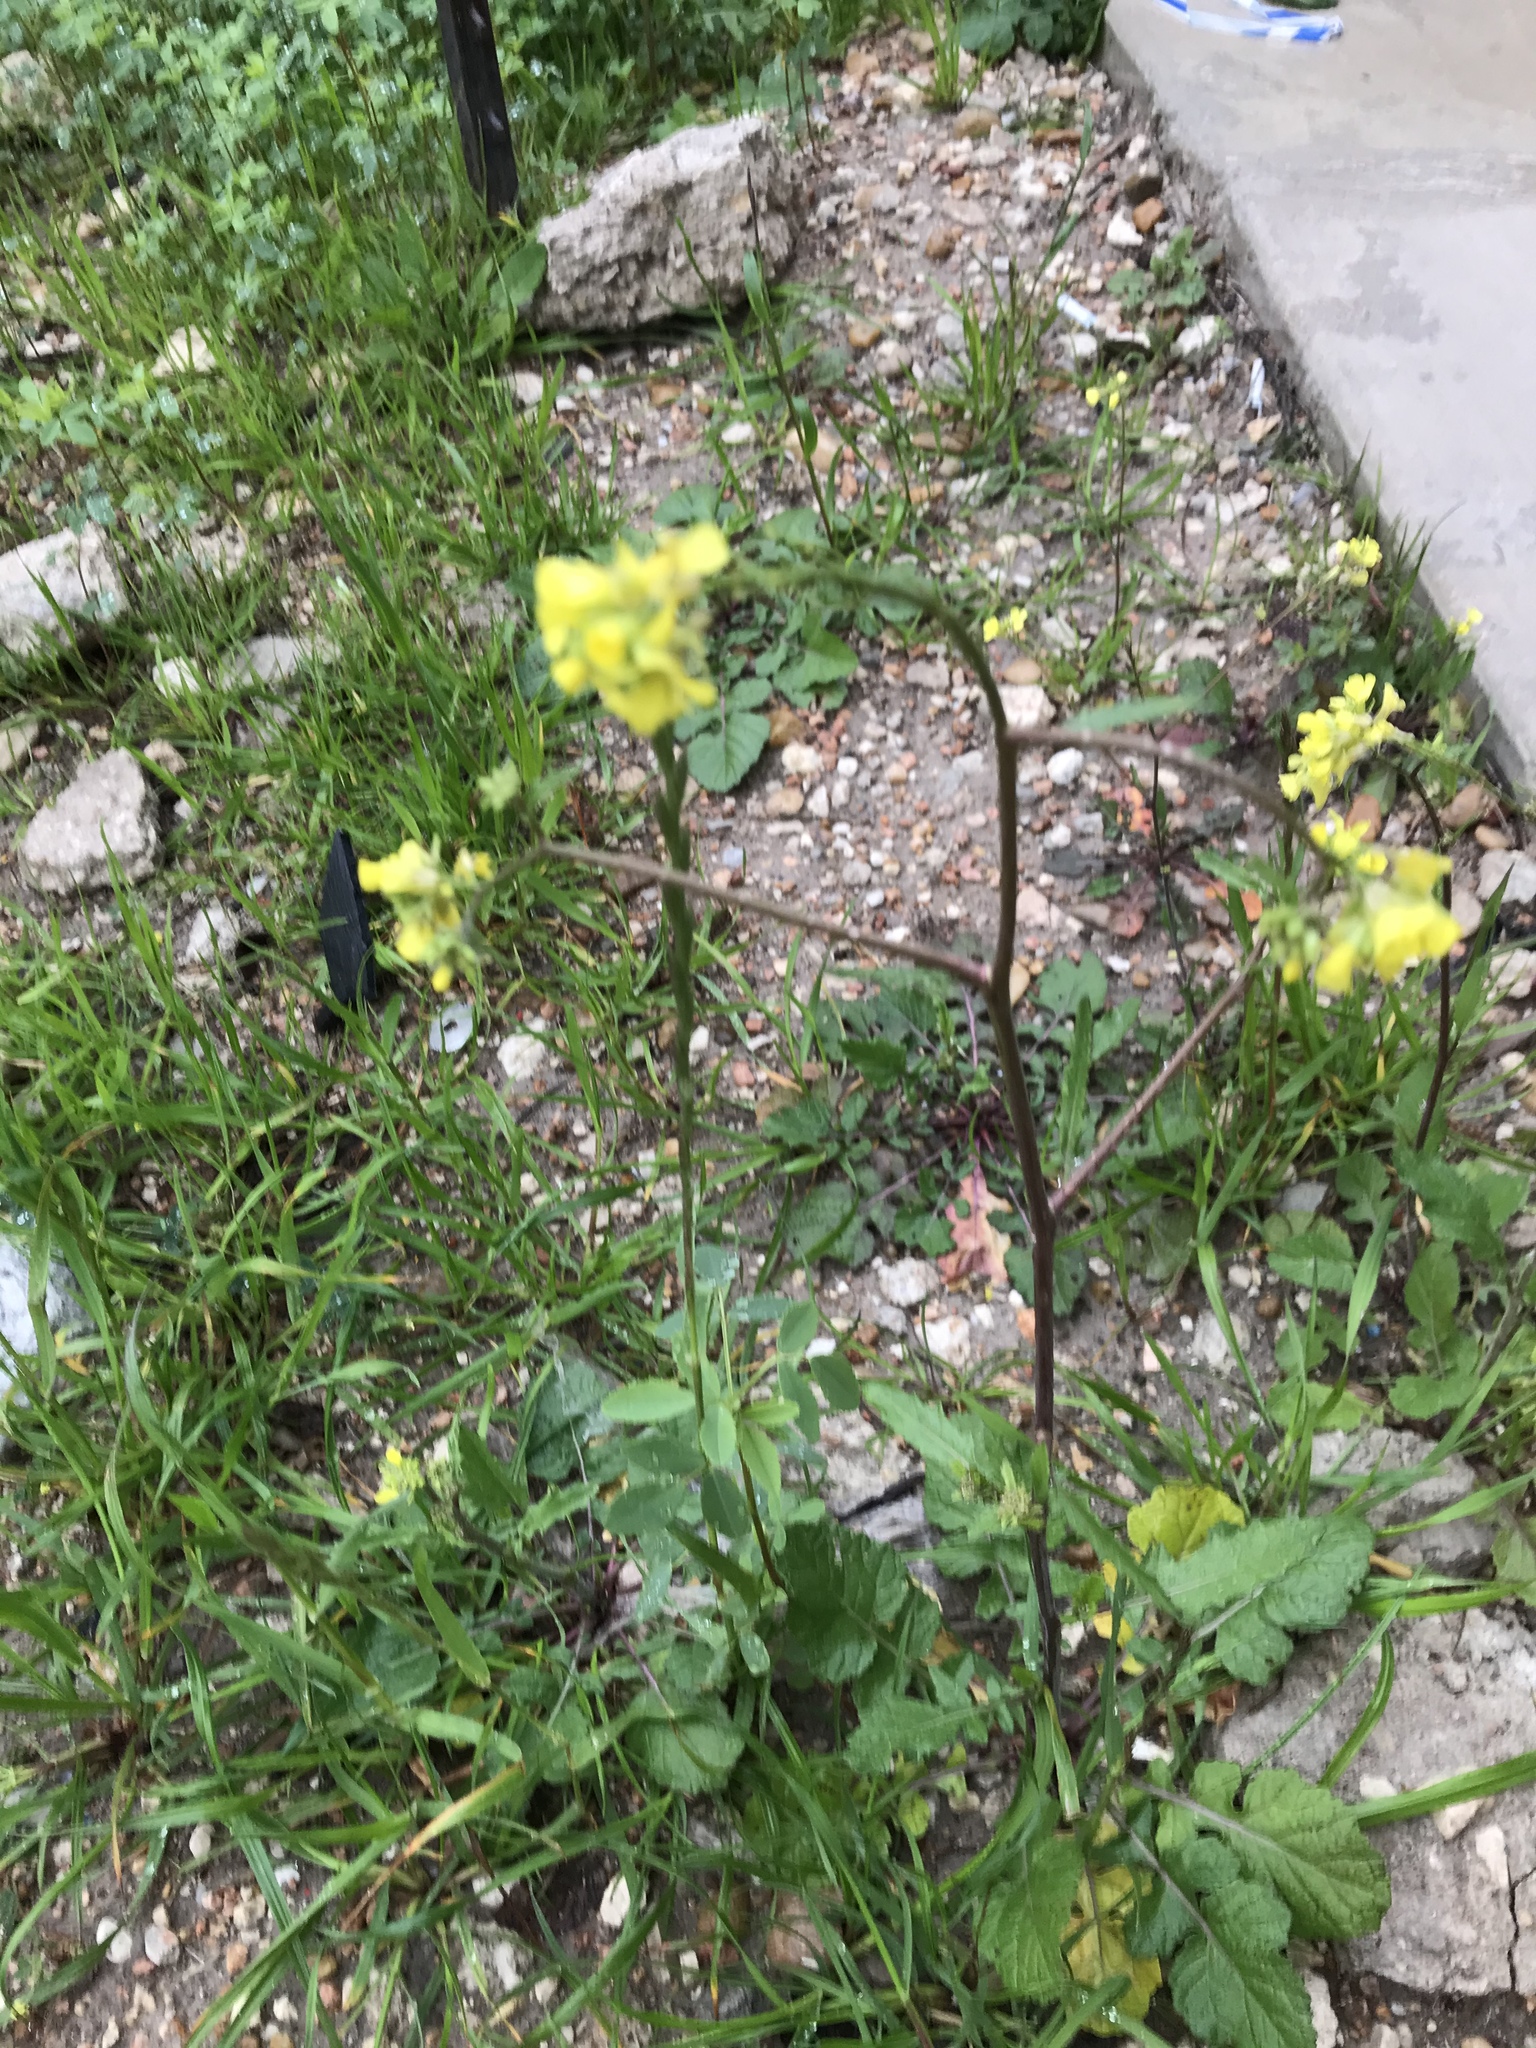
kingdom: Plantae
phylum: Tracheophyta
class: Magnoliopsida
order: Brassicales
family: Brassicaceae
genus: Rapistrum
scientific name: Rapistrum rugosum
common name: Annual bastardcabbage
